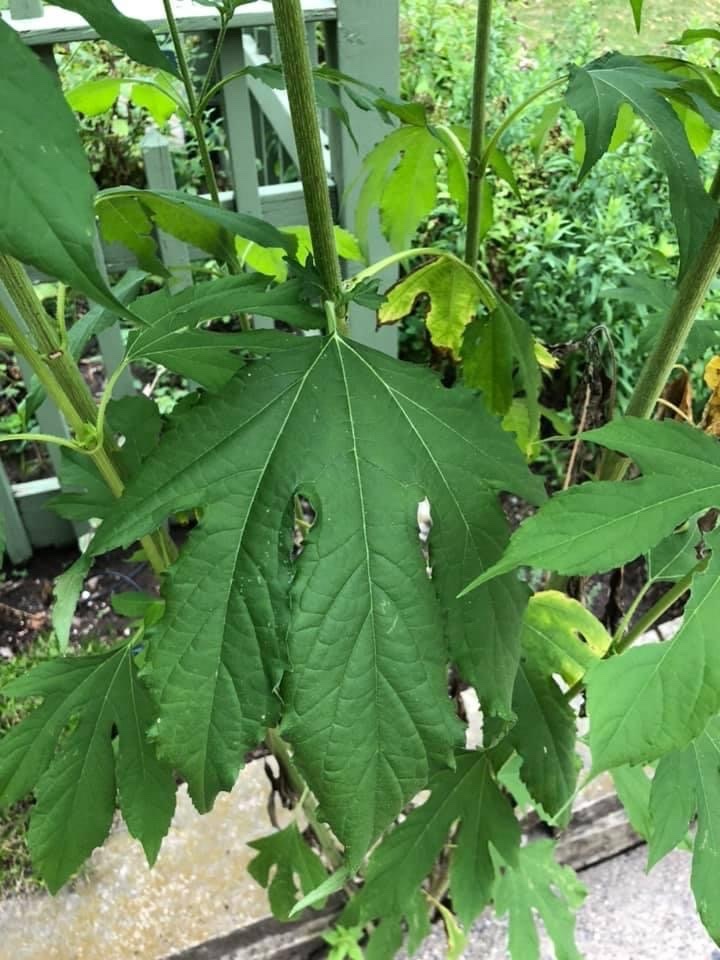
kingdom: Plantae
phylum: Tracheophyta
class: Magnoliopsida
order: Asterales
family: Asteraceae
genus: Ambrosia
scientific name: Ambrosia trifida
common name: Giant ragweed
